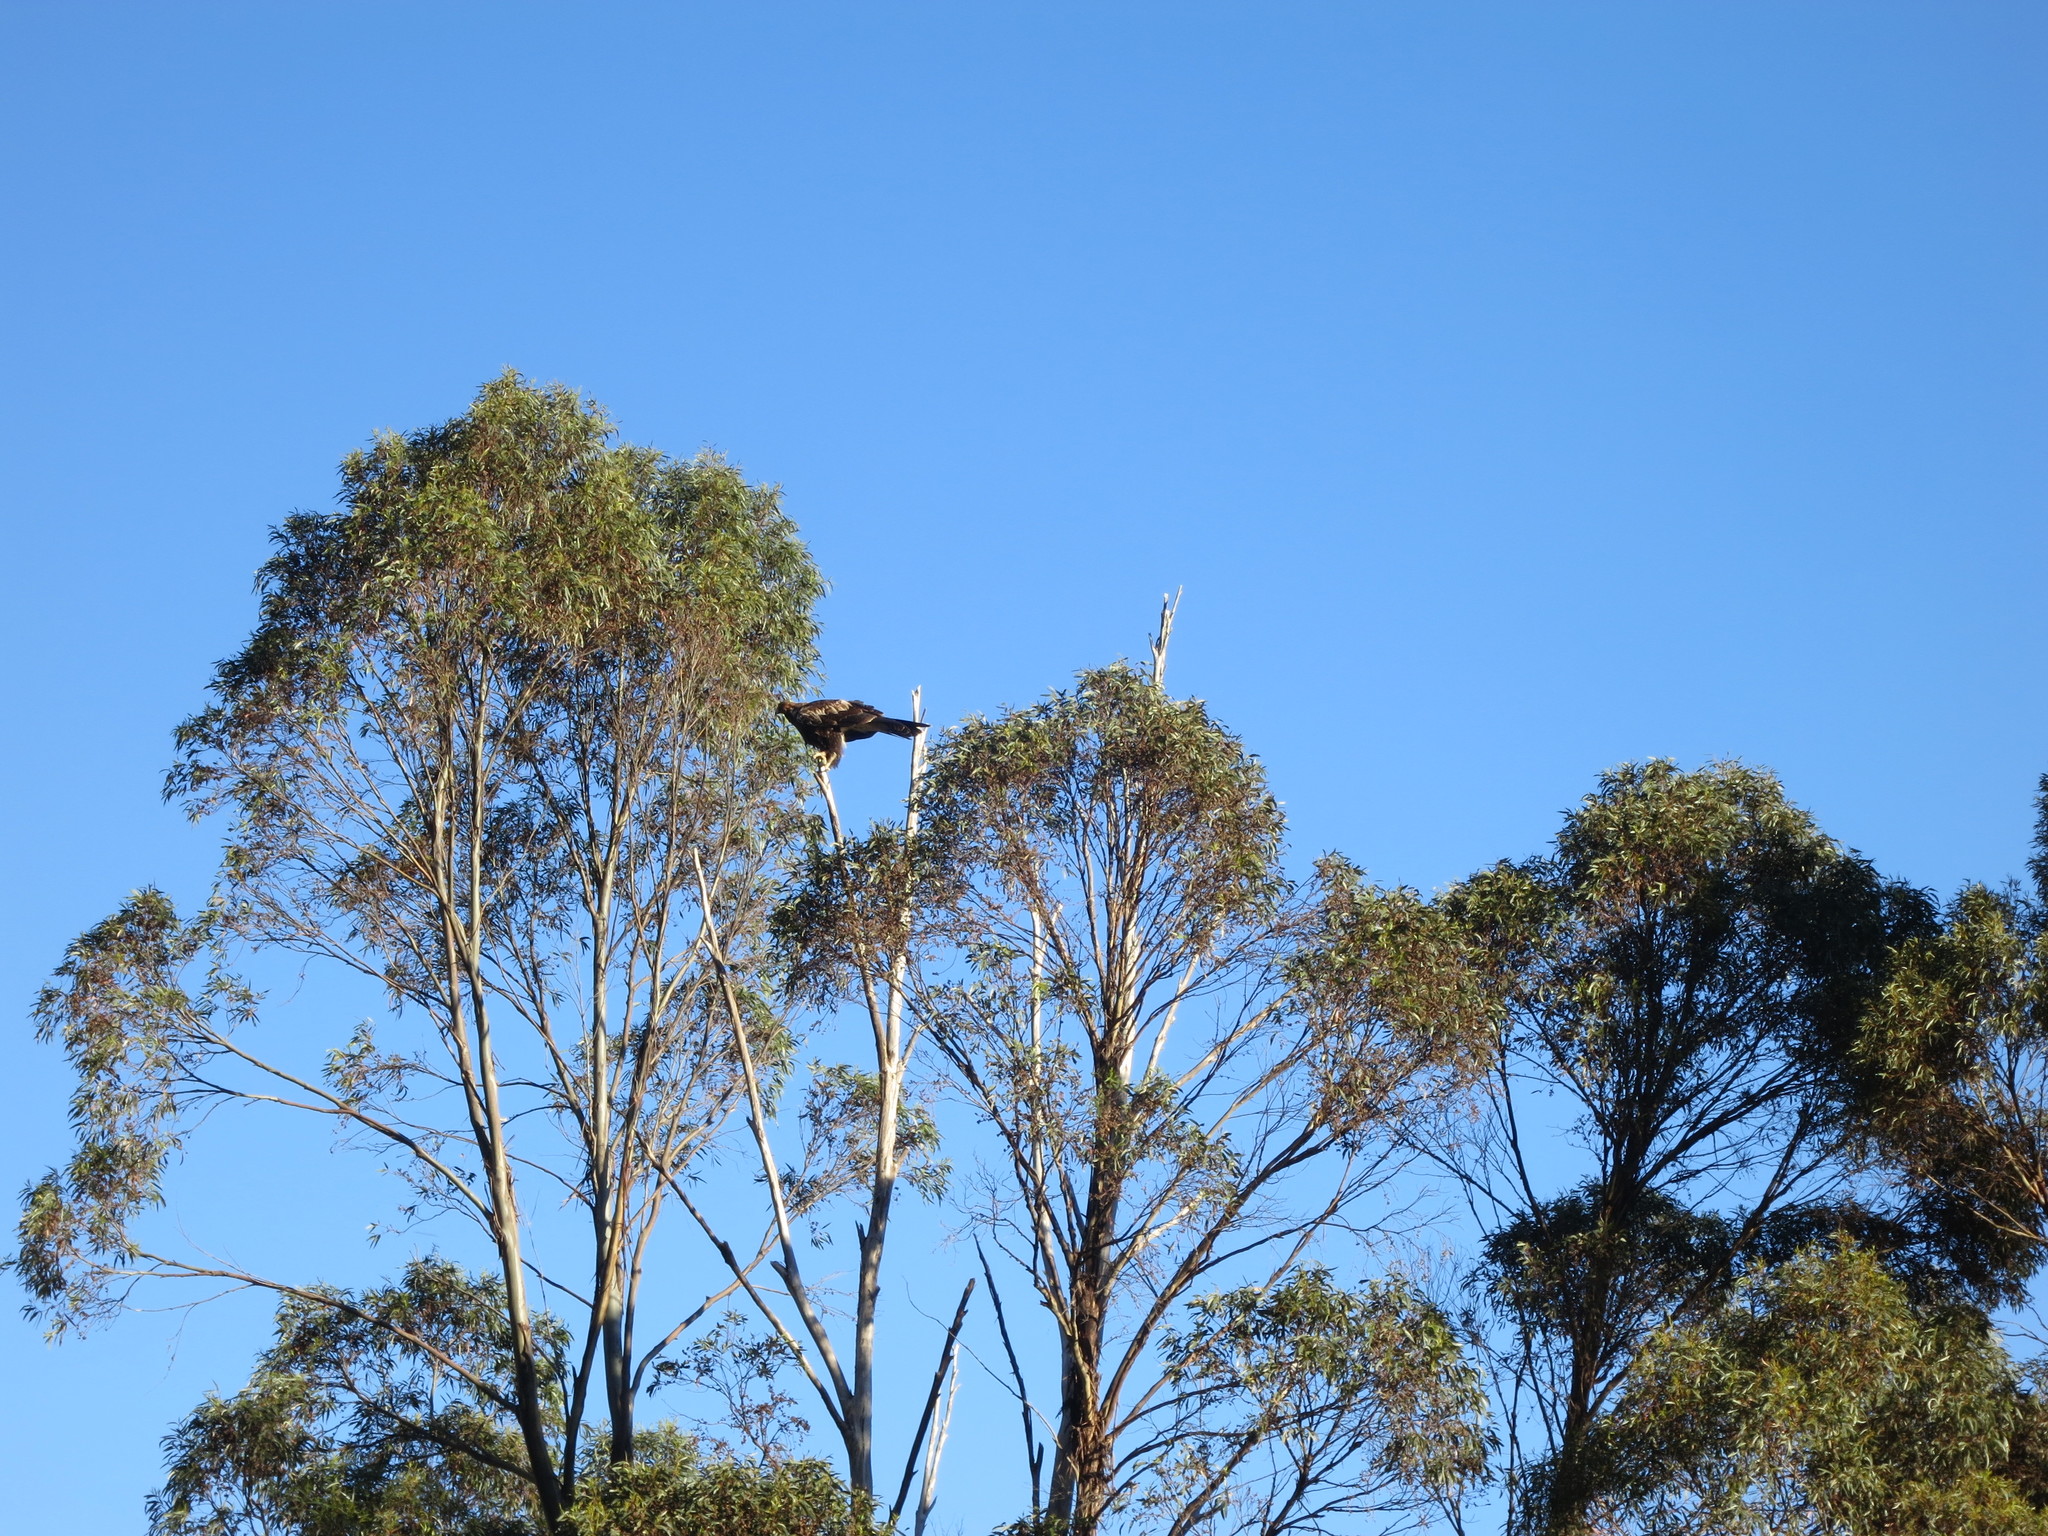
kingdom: Animalia
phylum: Chordata
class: Aves
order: Accipitriformes
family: Accipitridae
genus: Aquila
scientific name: Aquila audax
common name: Wedge-tailed eagle
